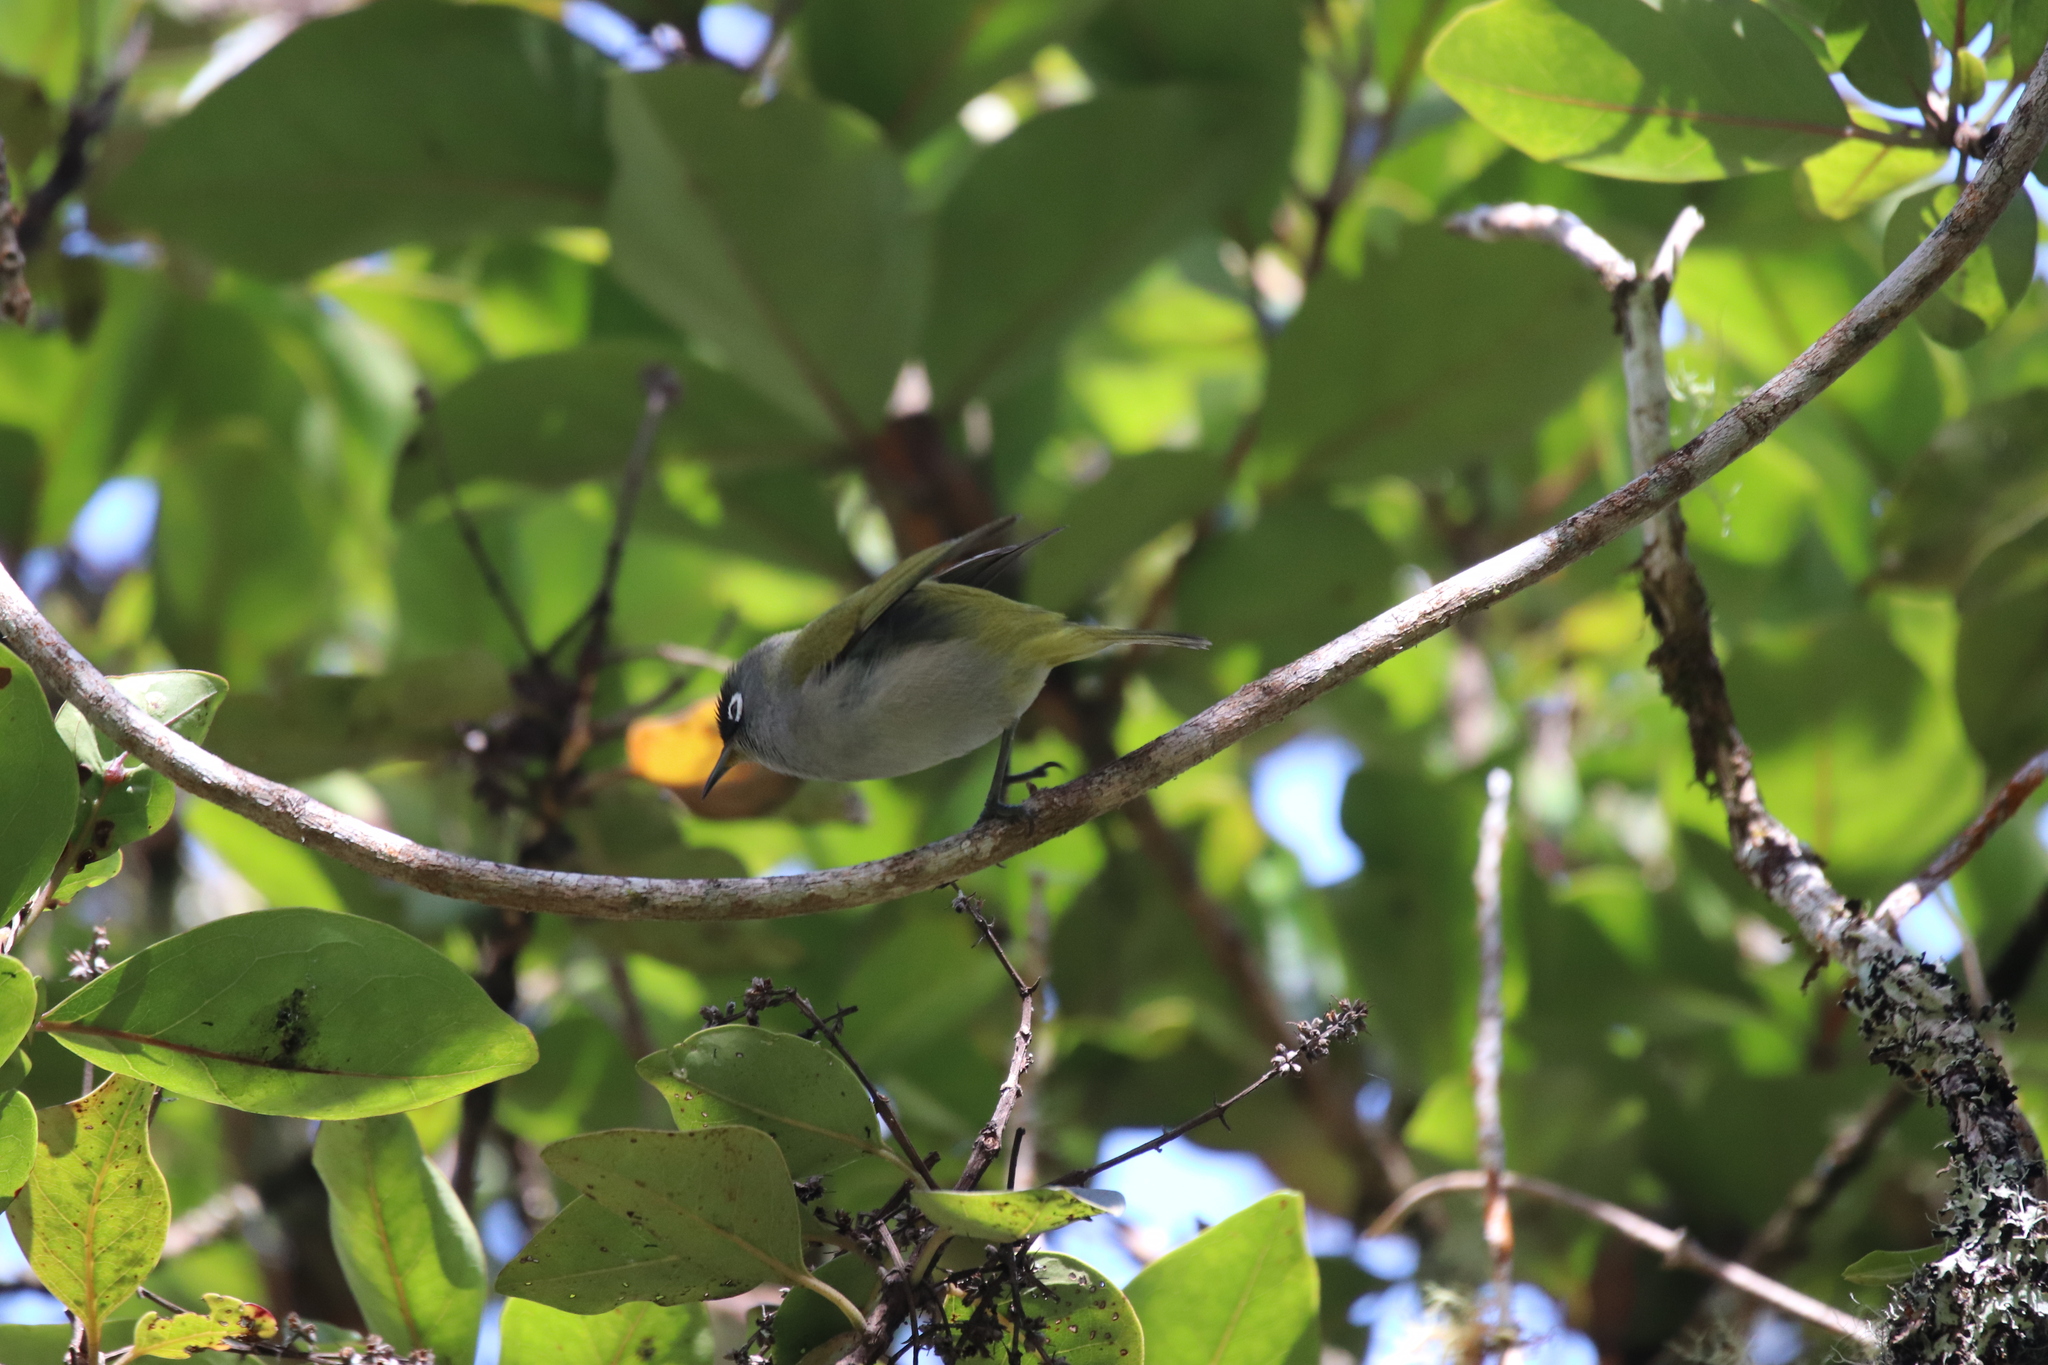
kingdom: Animalia
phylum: Chordata
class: Aves
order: Passeriformes
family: Zosteropidae
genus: Zosterops
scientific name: Zosterops olivaceus
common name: Reunion olive white-eye
